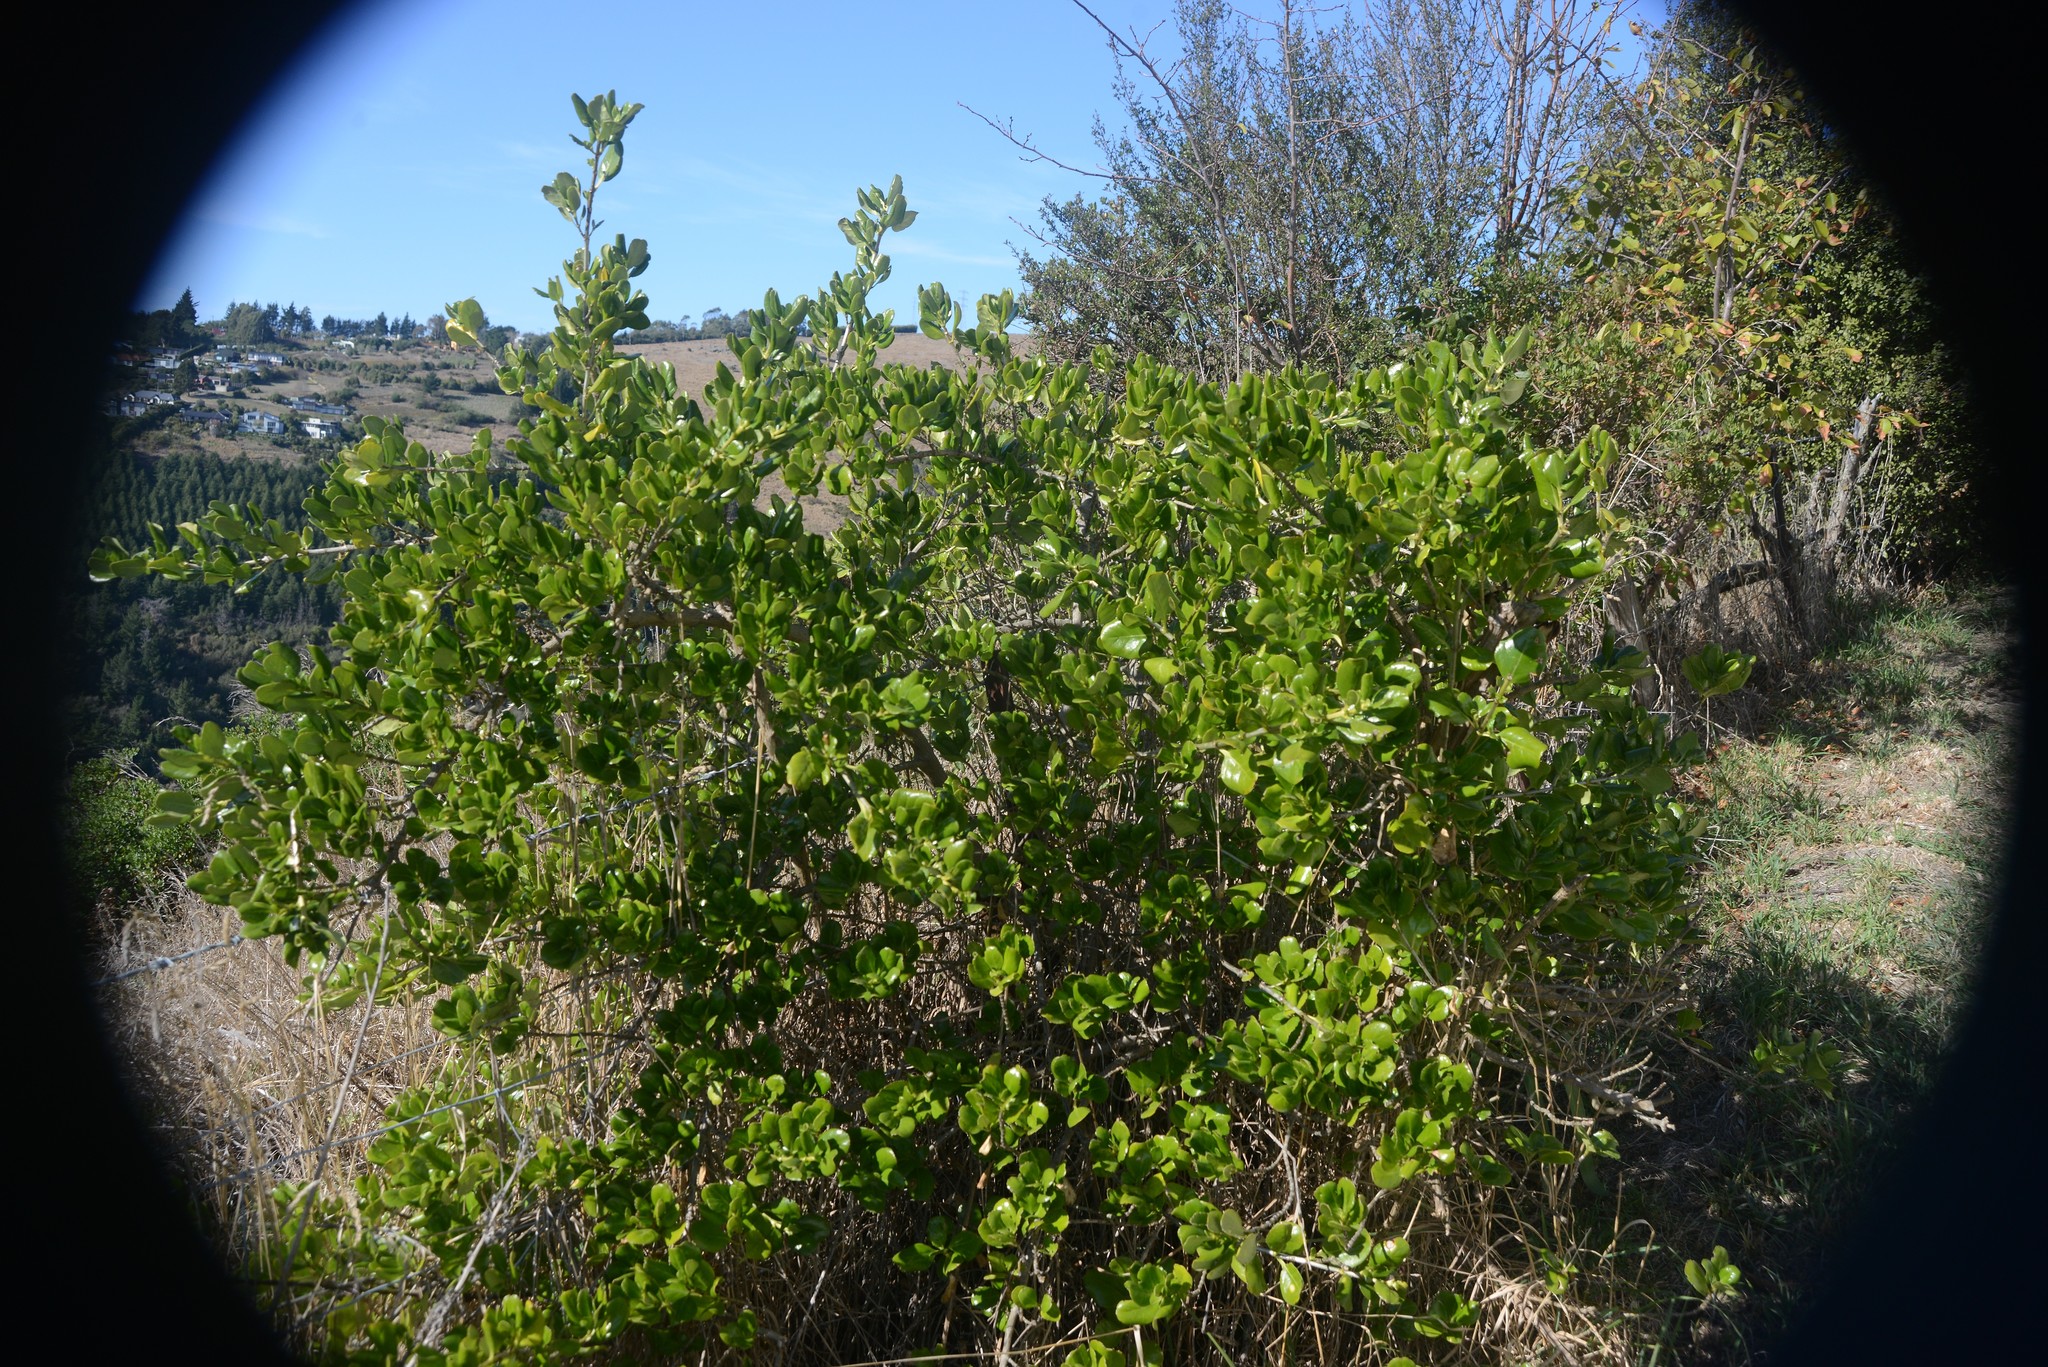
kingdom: Plantae
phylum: Tracheophyta
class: Magnoliopsida
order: Gentianales
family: Rubiaceae
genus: Coprosma
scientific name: Coprosma repens
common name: Tree bedstraw
